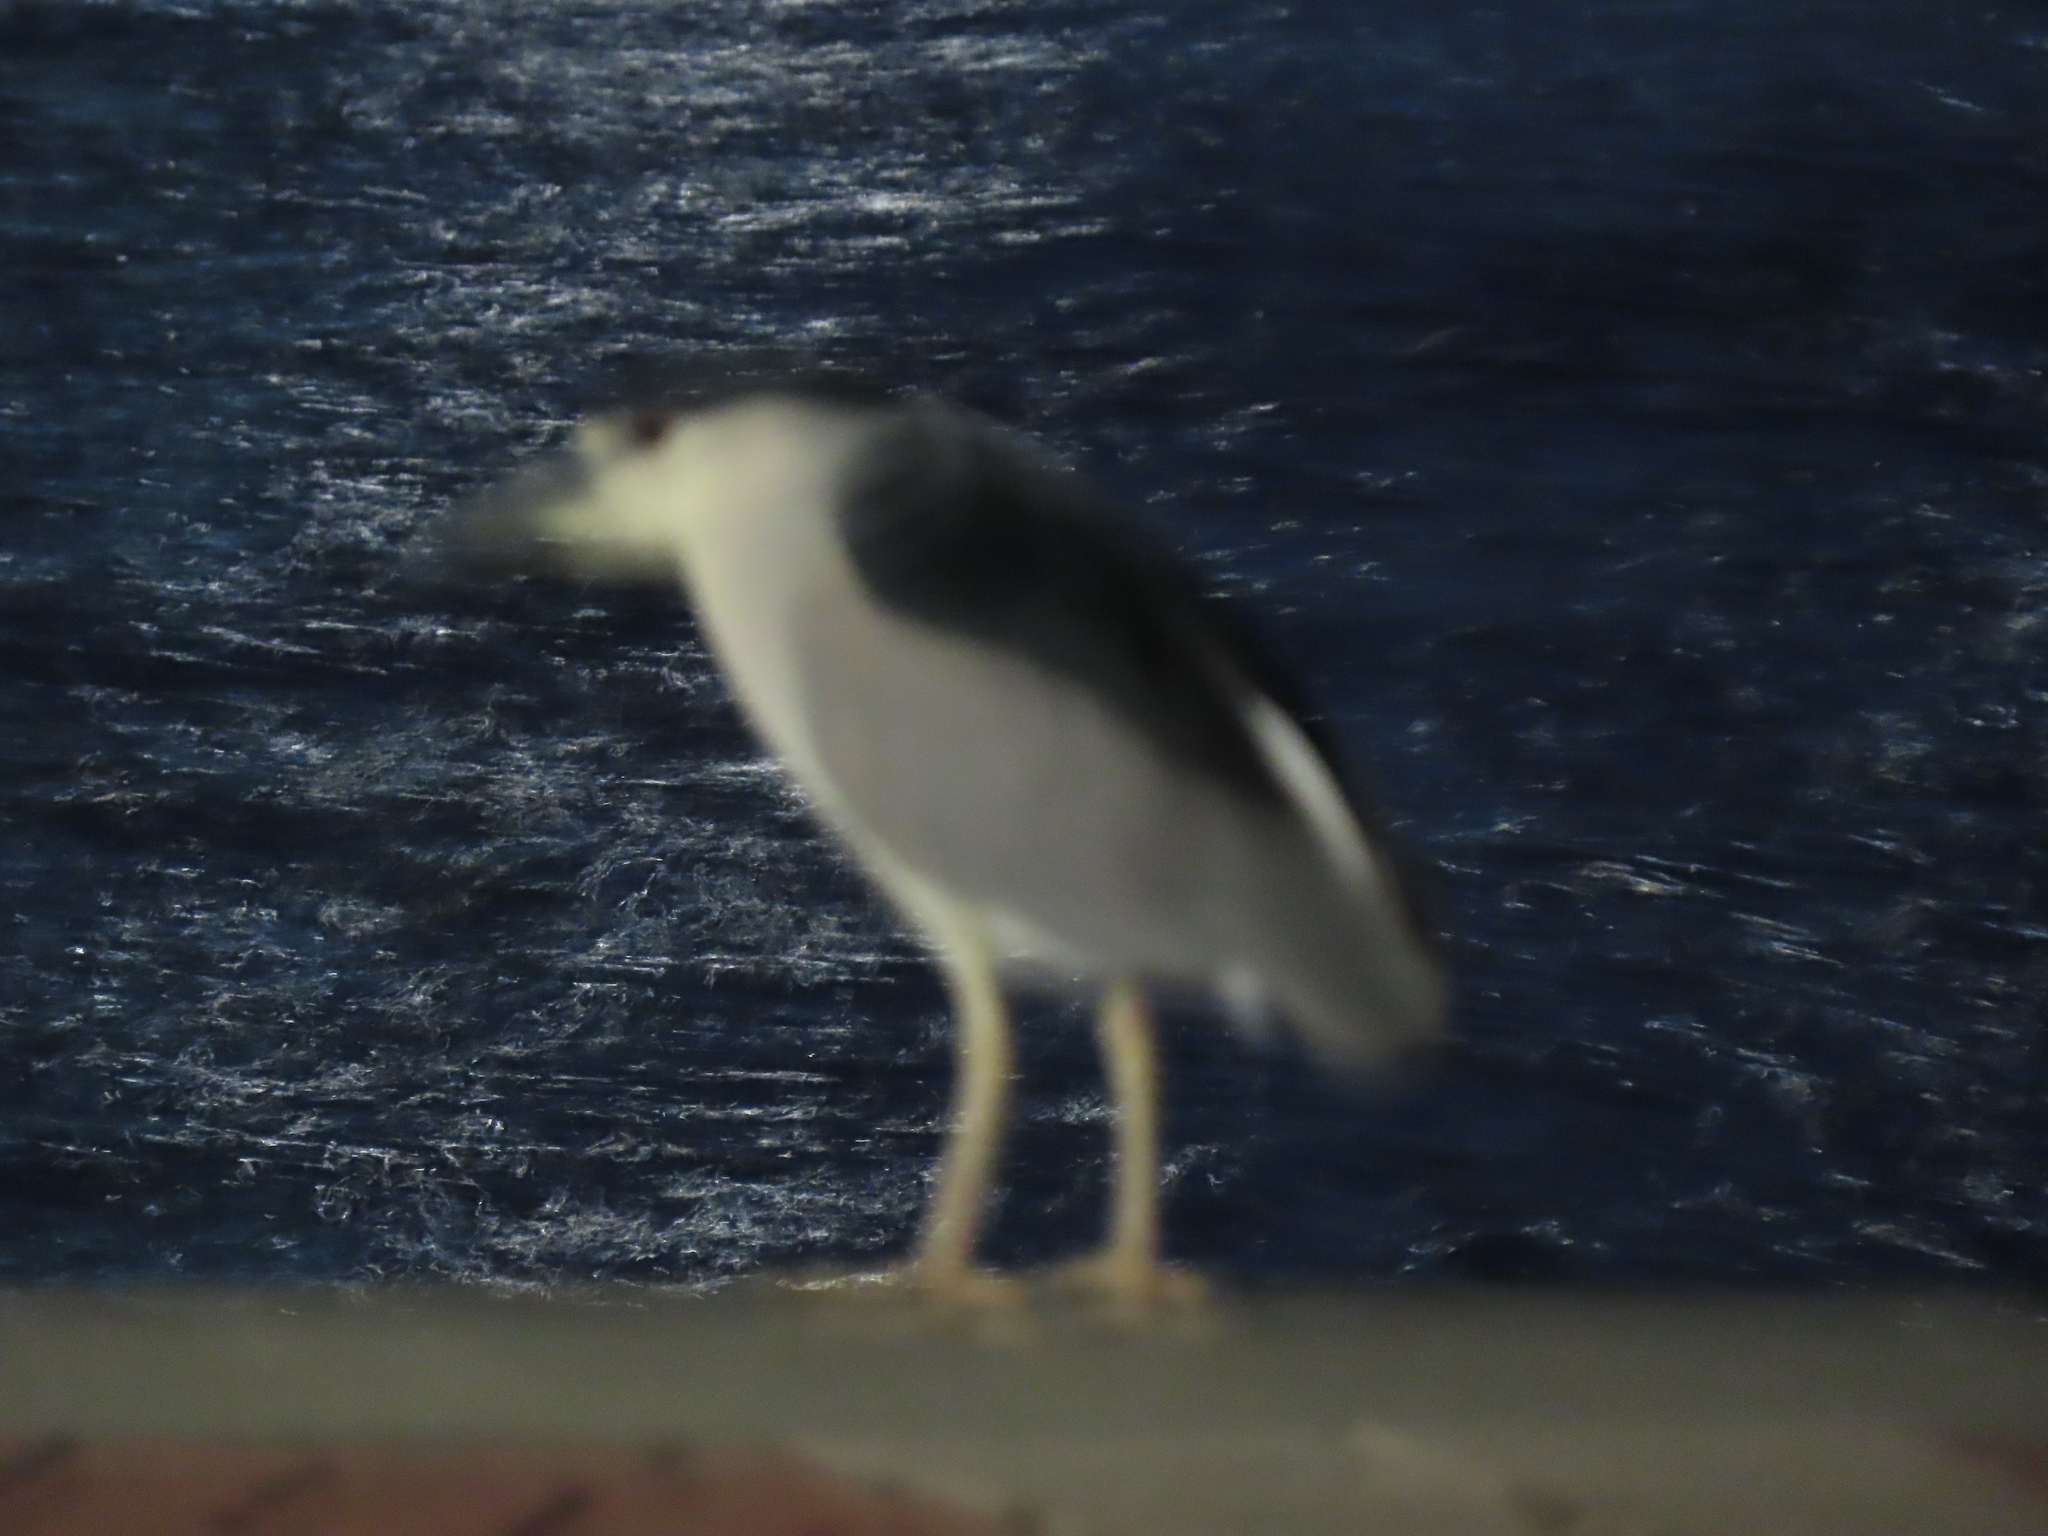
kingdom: Animalia
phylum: Chordata
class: Aves
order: Pelecaniformes
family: Ardeidae
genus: Nycticorax
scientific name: Nycticorax nycticorax
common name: Black-crowned night heron
